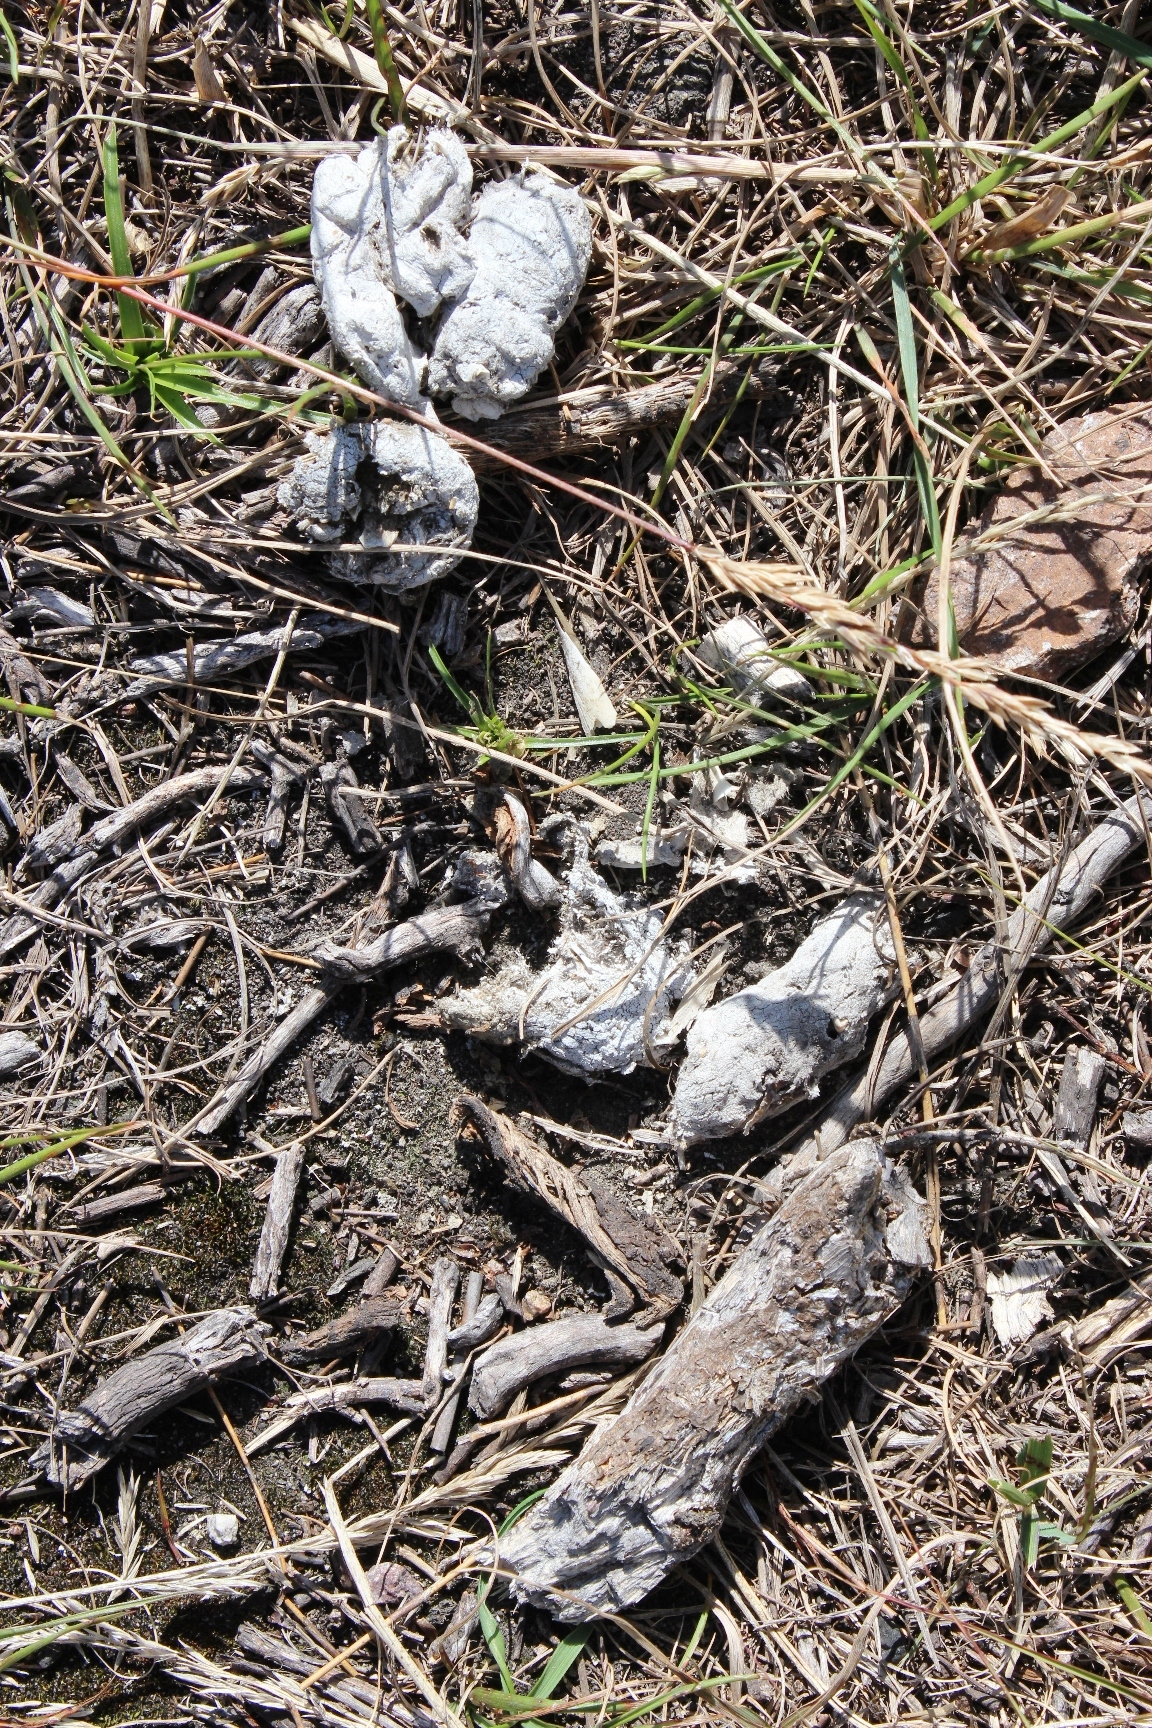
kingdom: Animalia
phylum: Chordata
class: Mammalia
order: Carnivora
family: Felidae
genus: Panthera
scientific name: Panthera pardus
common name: Leopard
